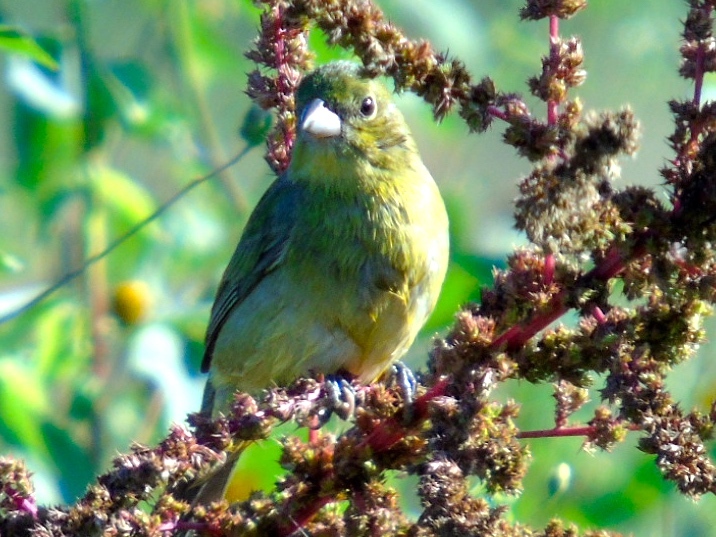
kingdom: Animalia
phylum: Chordata
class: Aves
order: Passeriformes
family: Cardinalidae
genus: Passerina
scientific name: Passerina ciris
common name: Painted bunting
